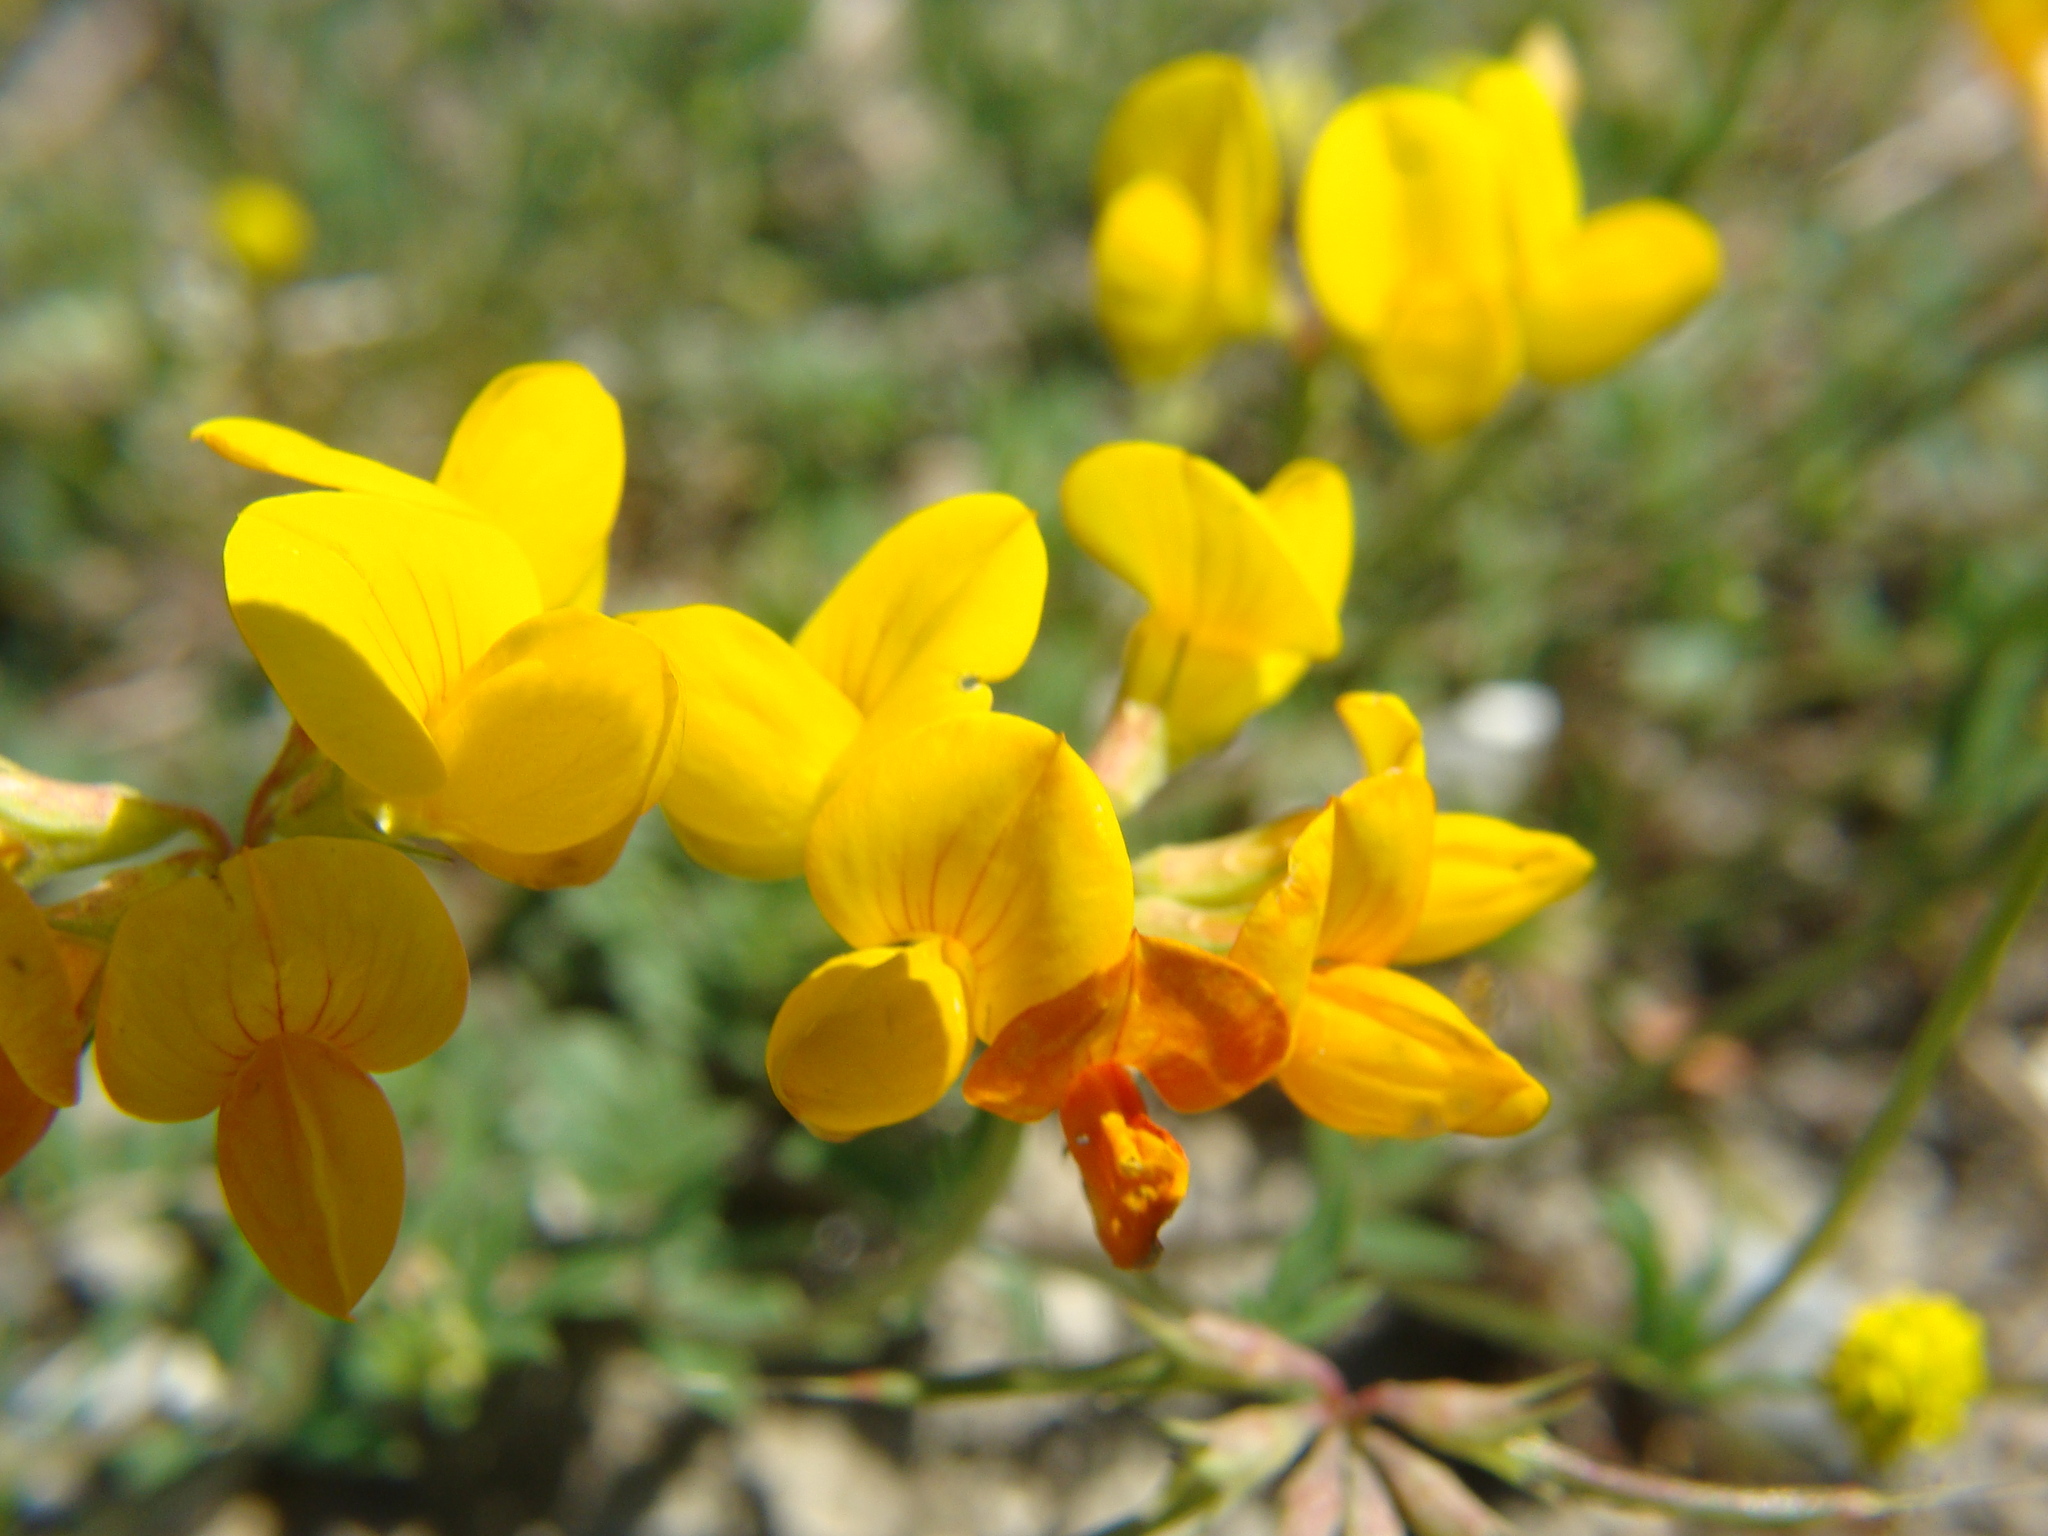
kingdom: Plantae
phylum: Tracheophyta
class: Magnoliopsida
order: Fabales
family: Fabaceae
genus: Lotus
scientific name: Lotus corniculatus
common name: Common bird's-foot-trefoil
